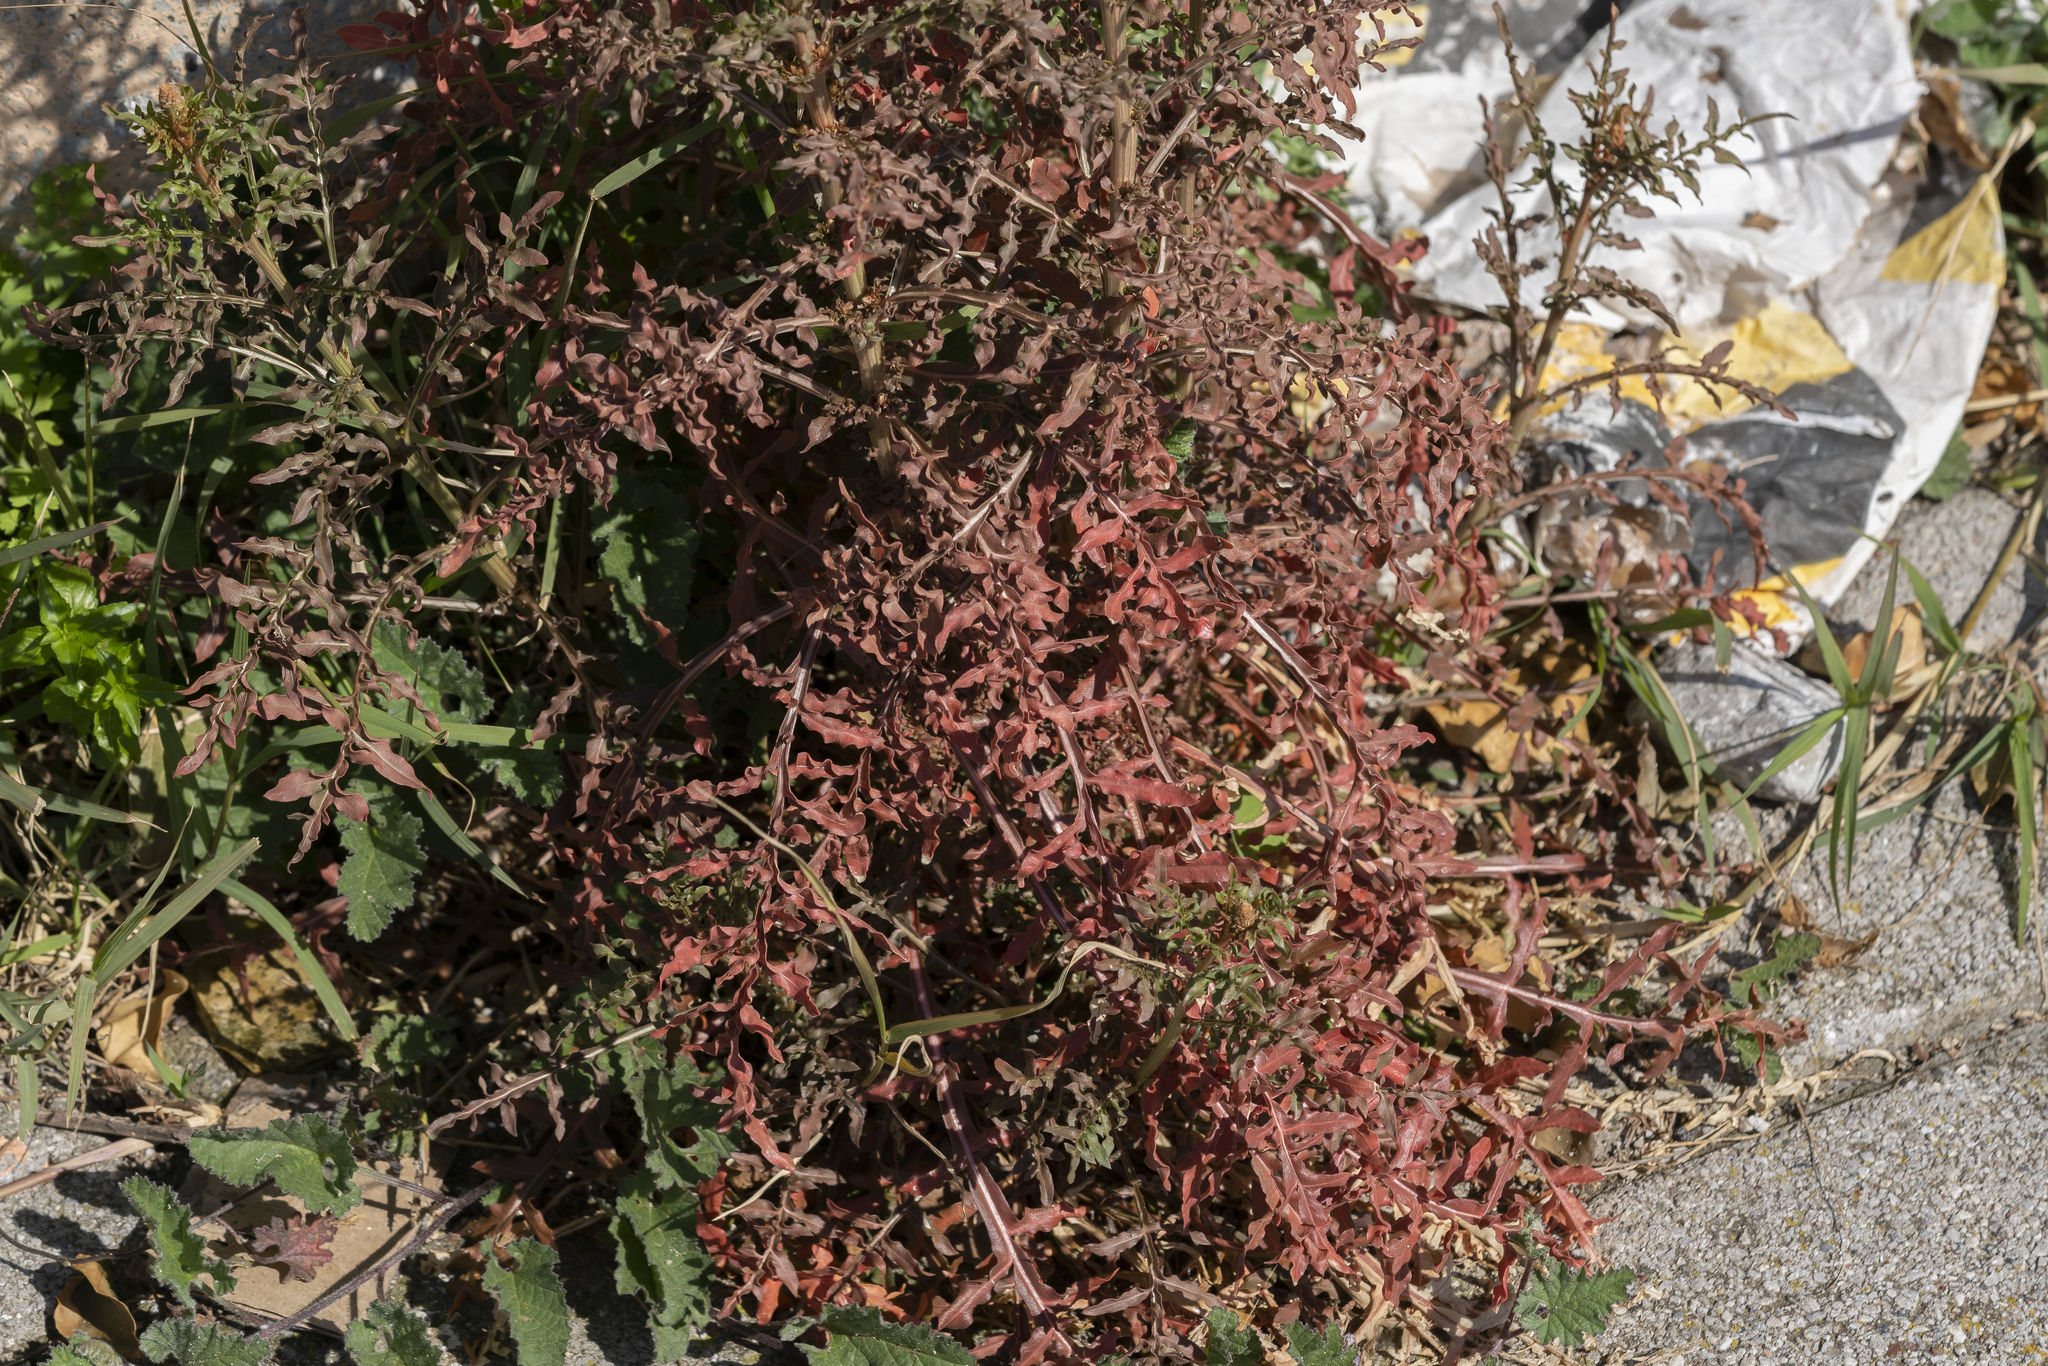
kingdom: Plantae
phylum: Tracheophyta
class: Magnoliopsida
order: Brassicales
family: Resedaceae
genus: Reseda
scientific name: Reseda alba
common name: White mignonette
